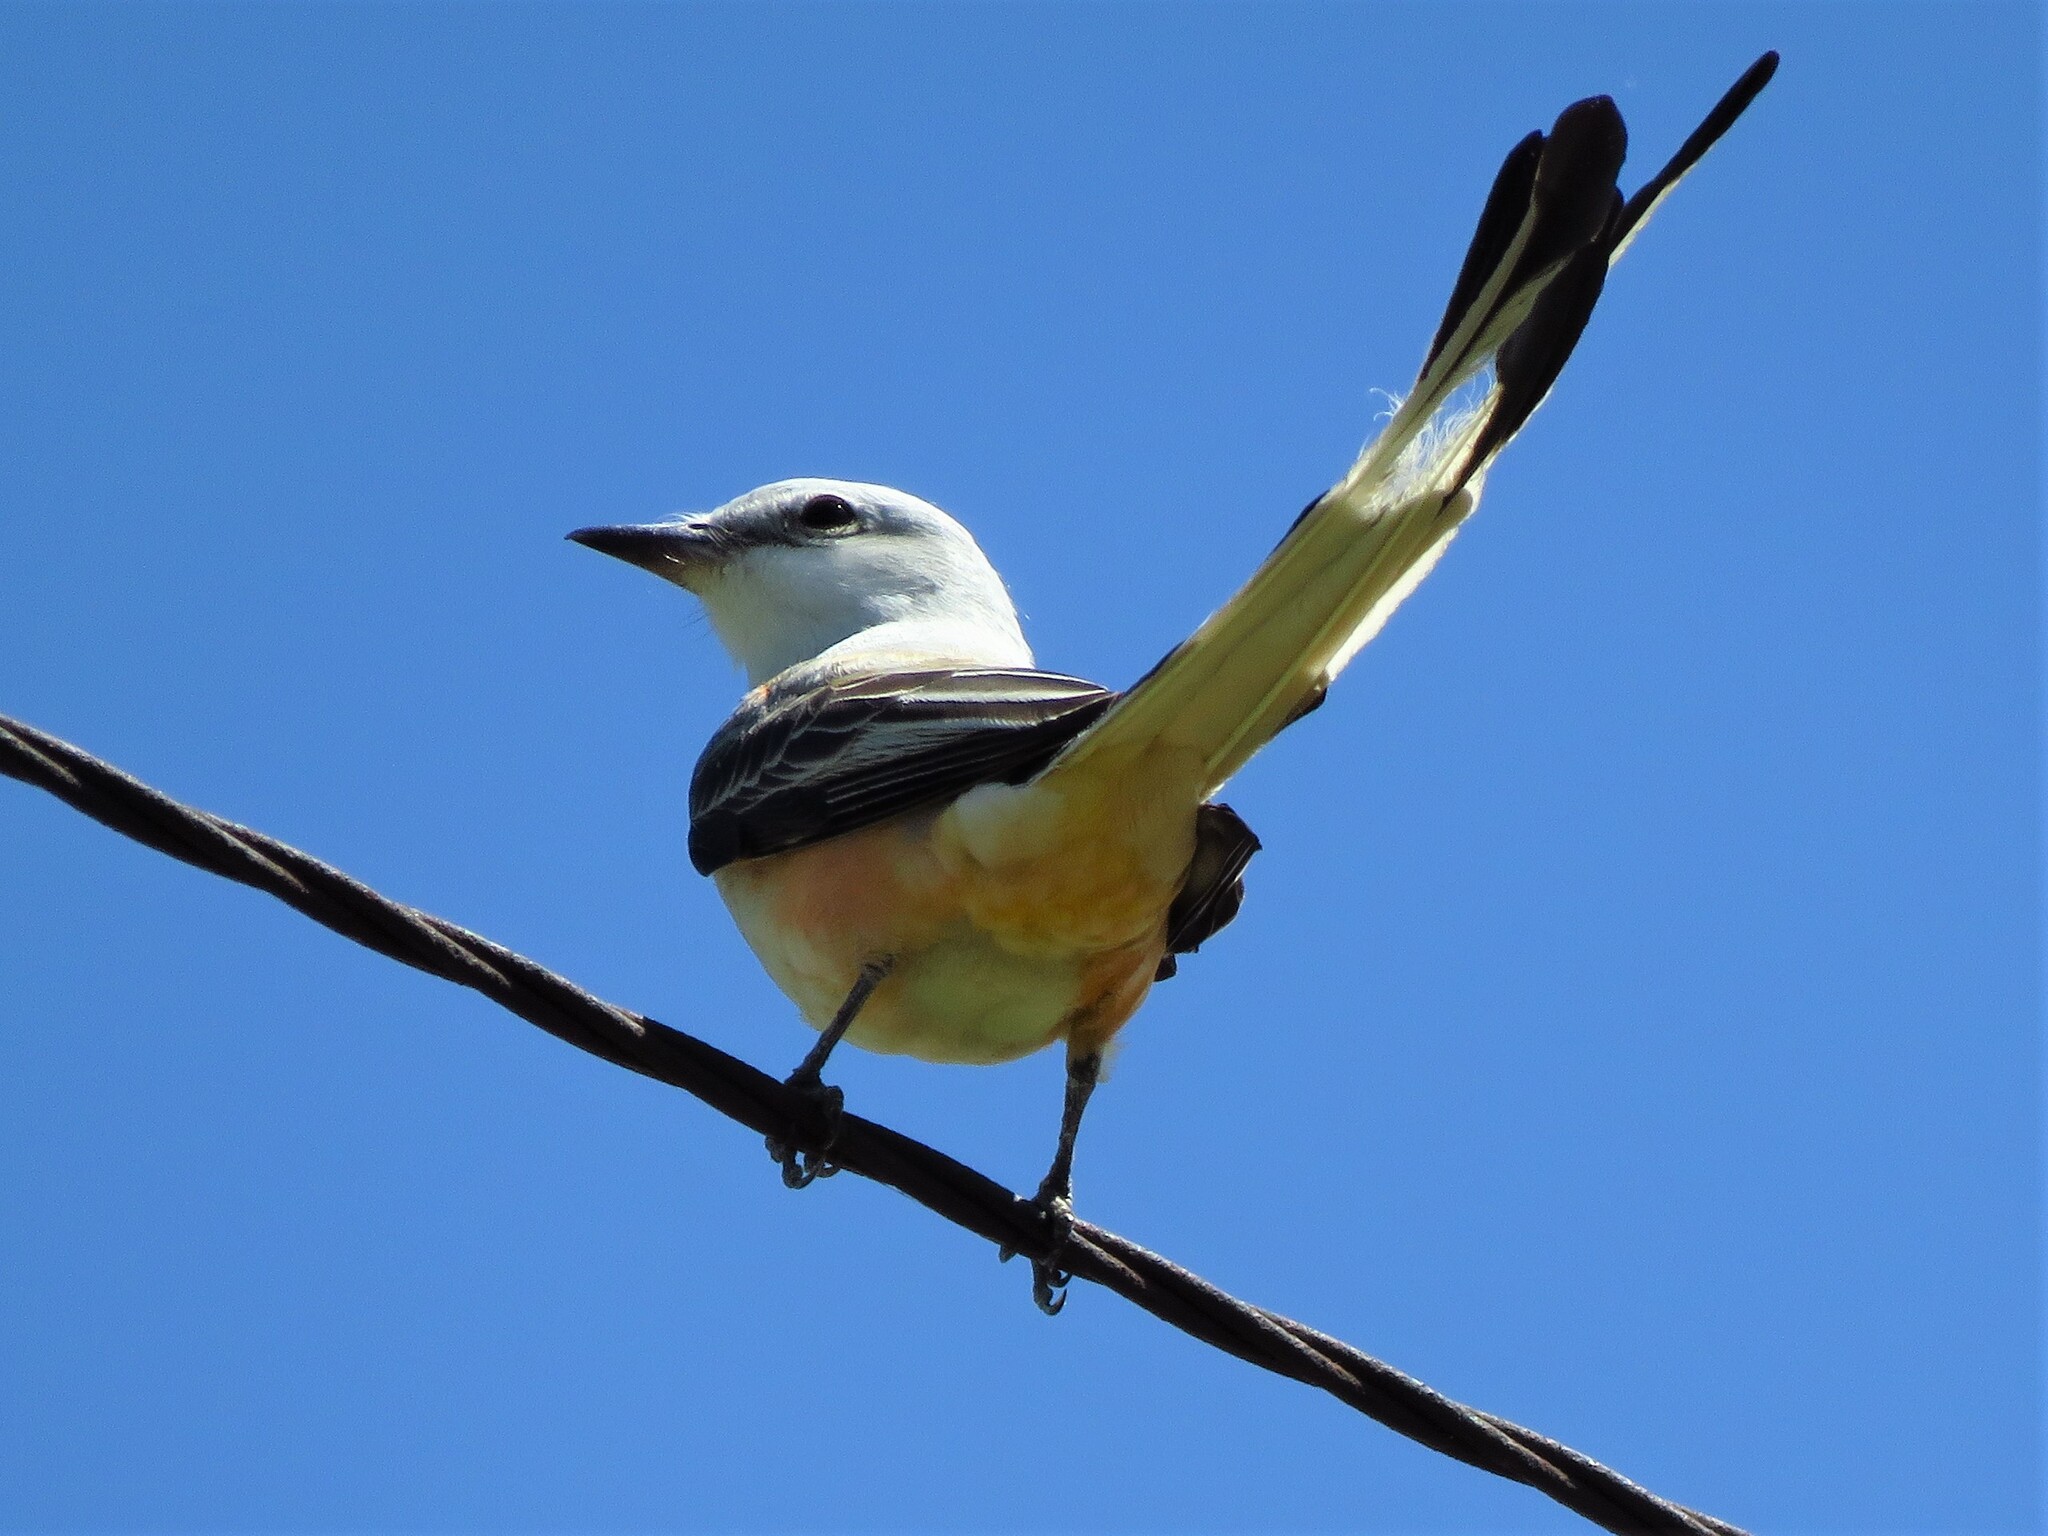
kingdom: Animalia
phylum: Chordata
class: Aves
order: Passeriformes
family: Tyrannidae
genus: Tyrannus
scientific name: Tyrannus forficatus
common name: Scissor-tailed flycatcher
